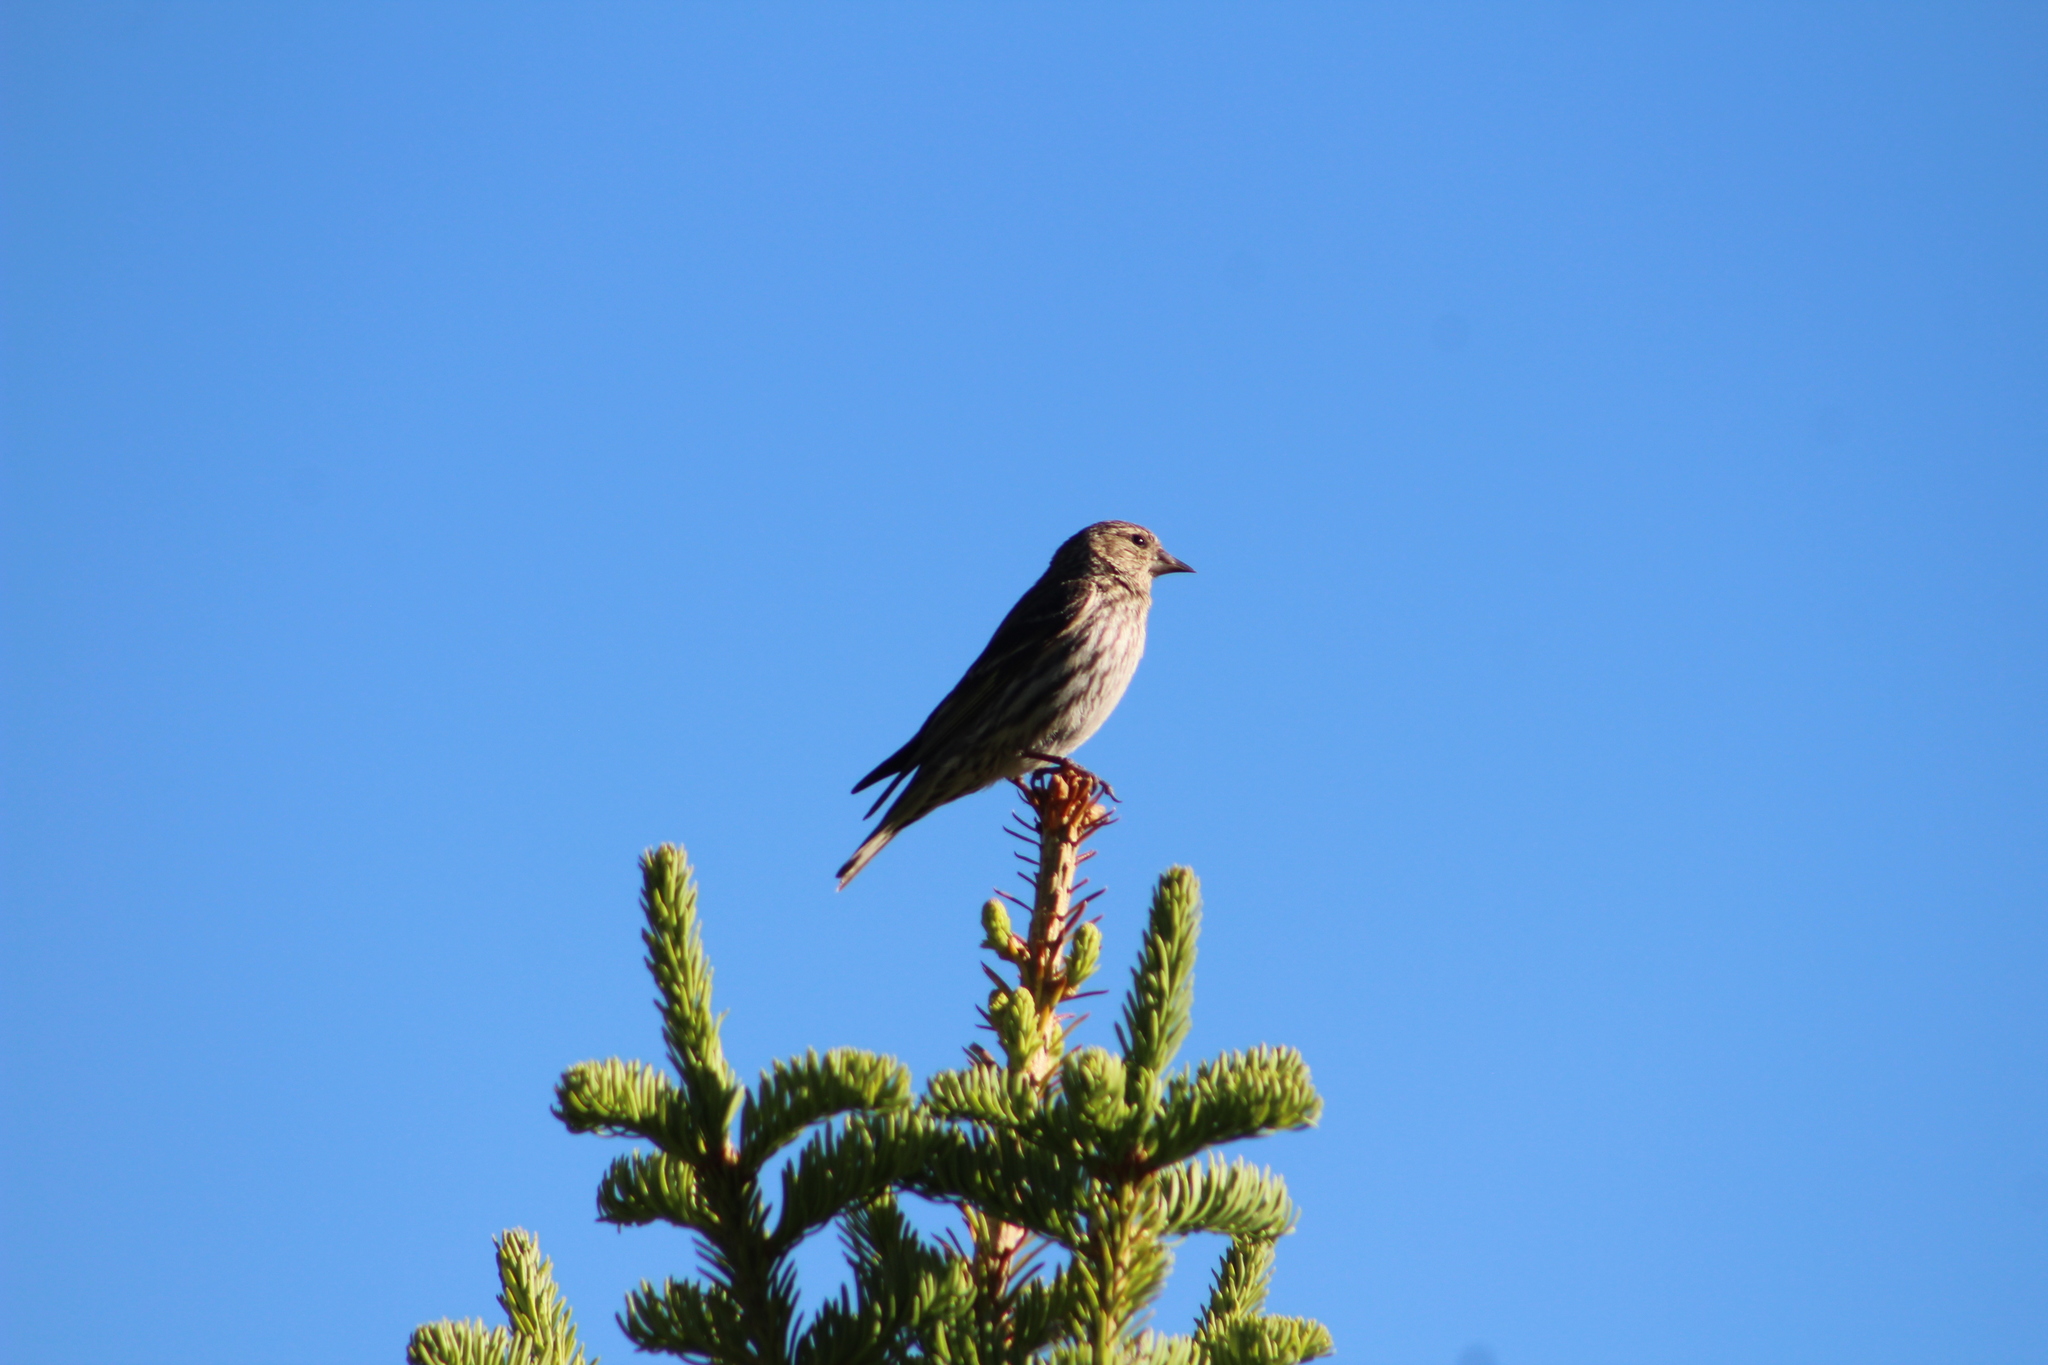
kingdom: Animalia
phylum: Chordata
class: Aves
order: Passeriformes
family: Fringillidae
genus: Spinus
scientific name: Spinus pinus
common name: Pine siskin
